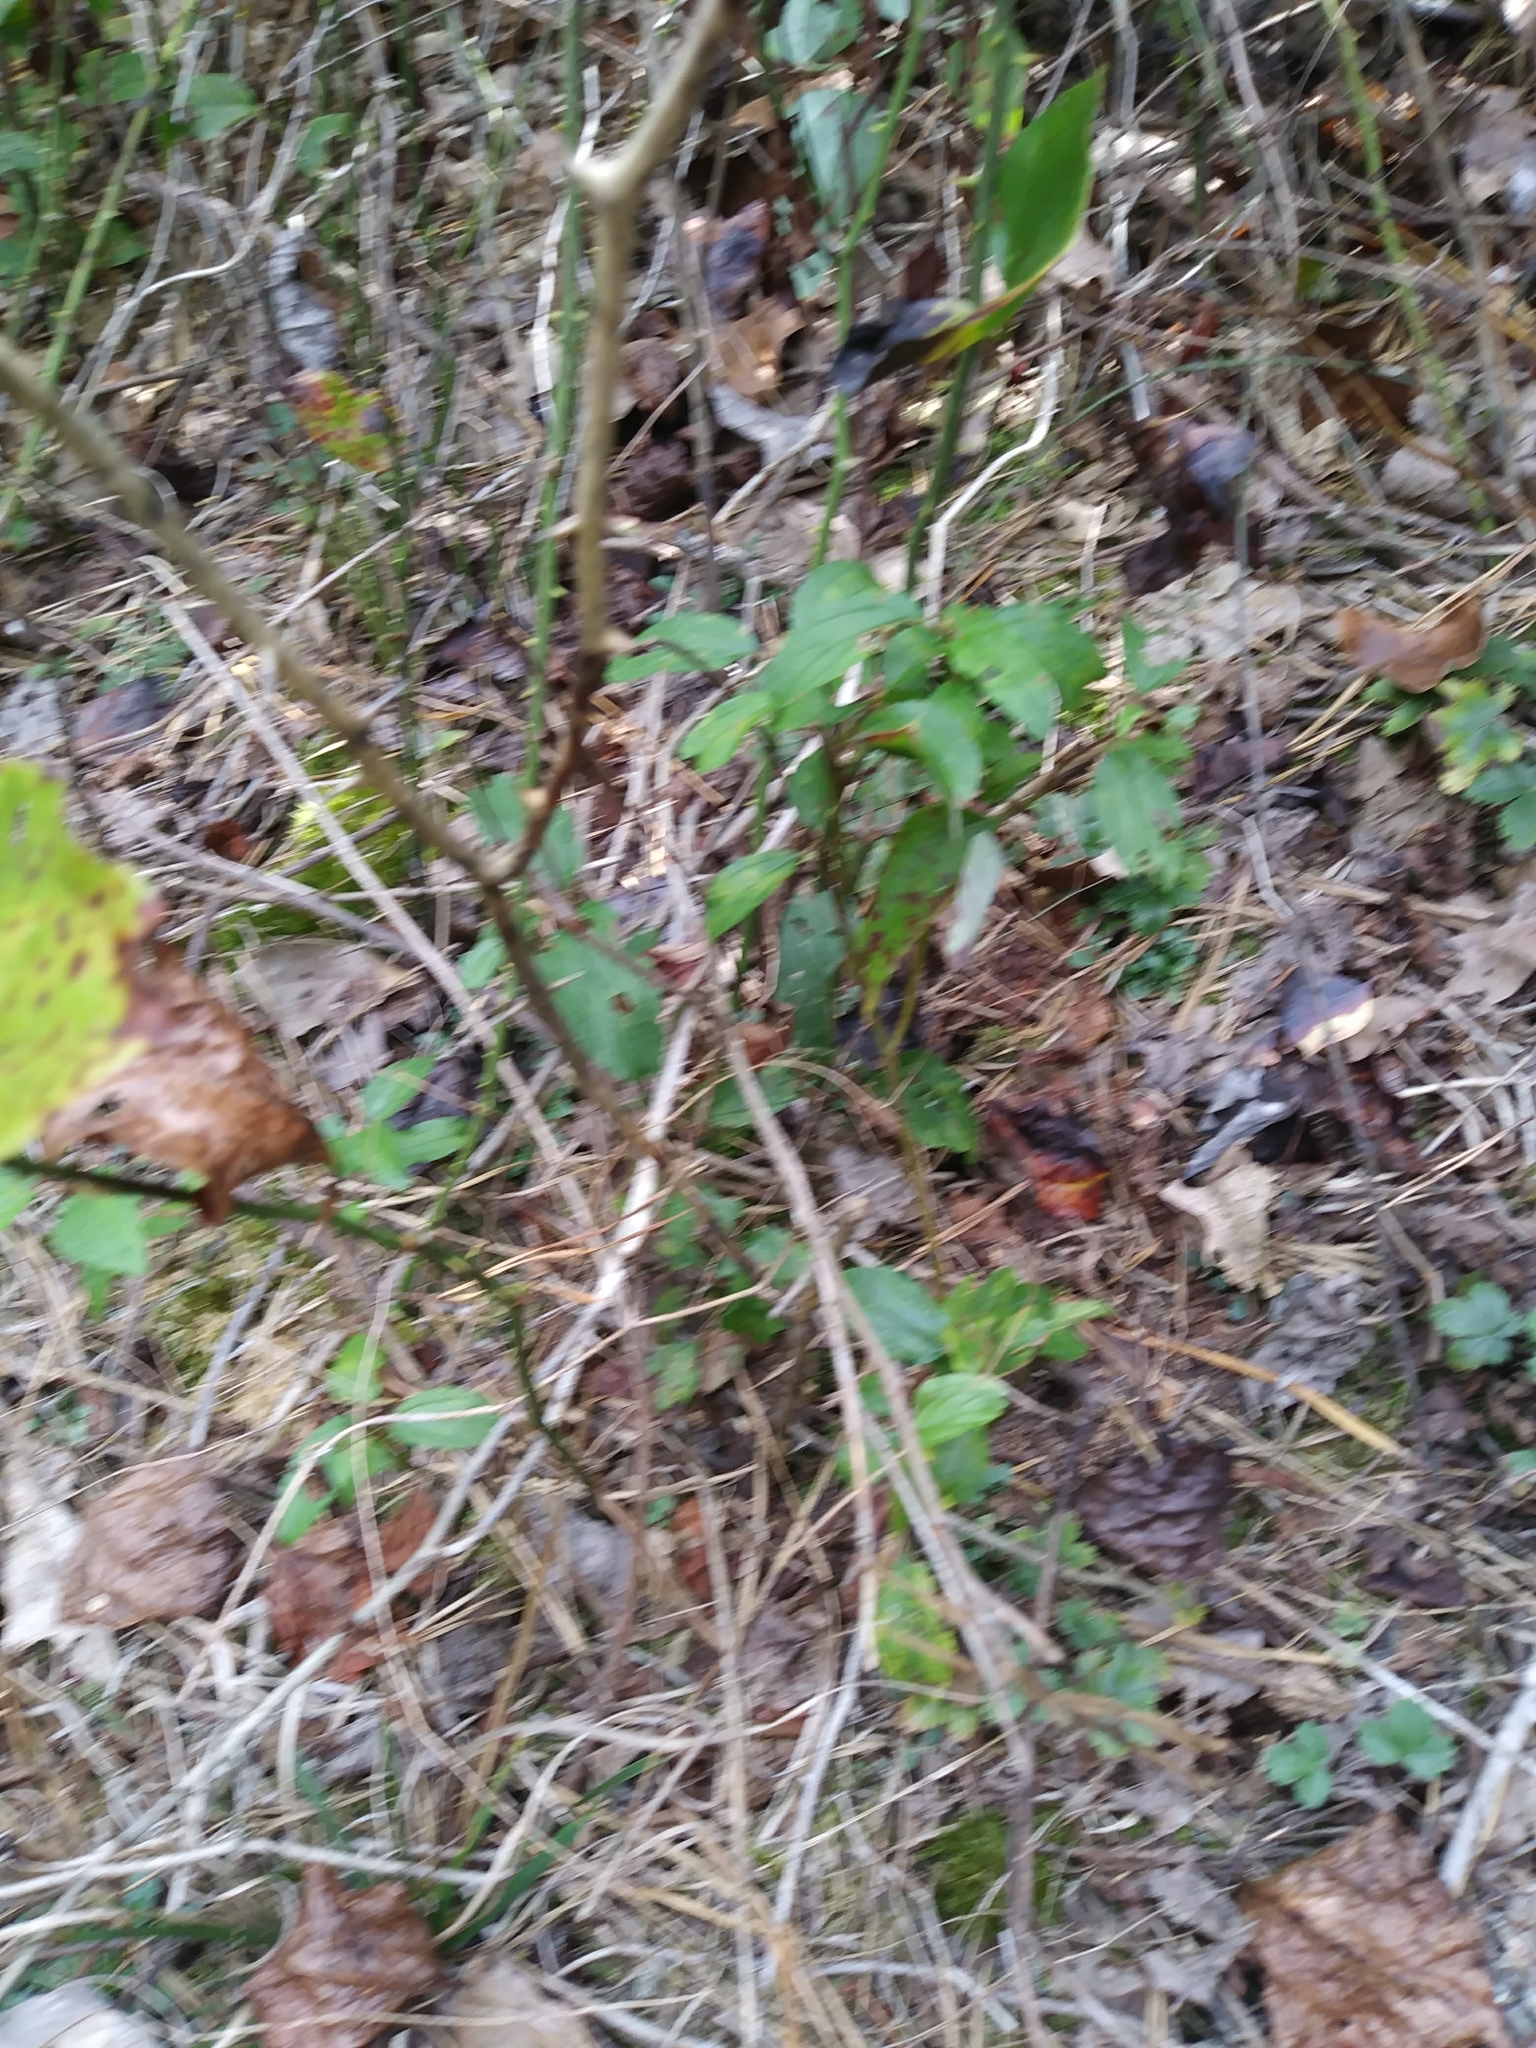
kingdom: Plantae
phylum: Tracheophyta
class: Magnoliopsida
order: Rosales
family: Rhamnaceae
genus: Ceanothus
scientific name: Ceanothus americanus
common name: Redroot
